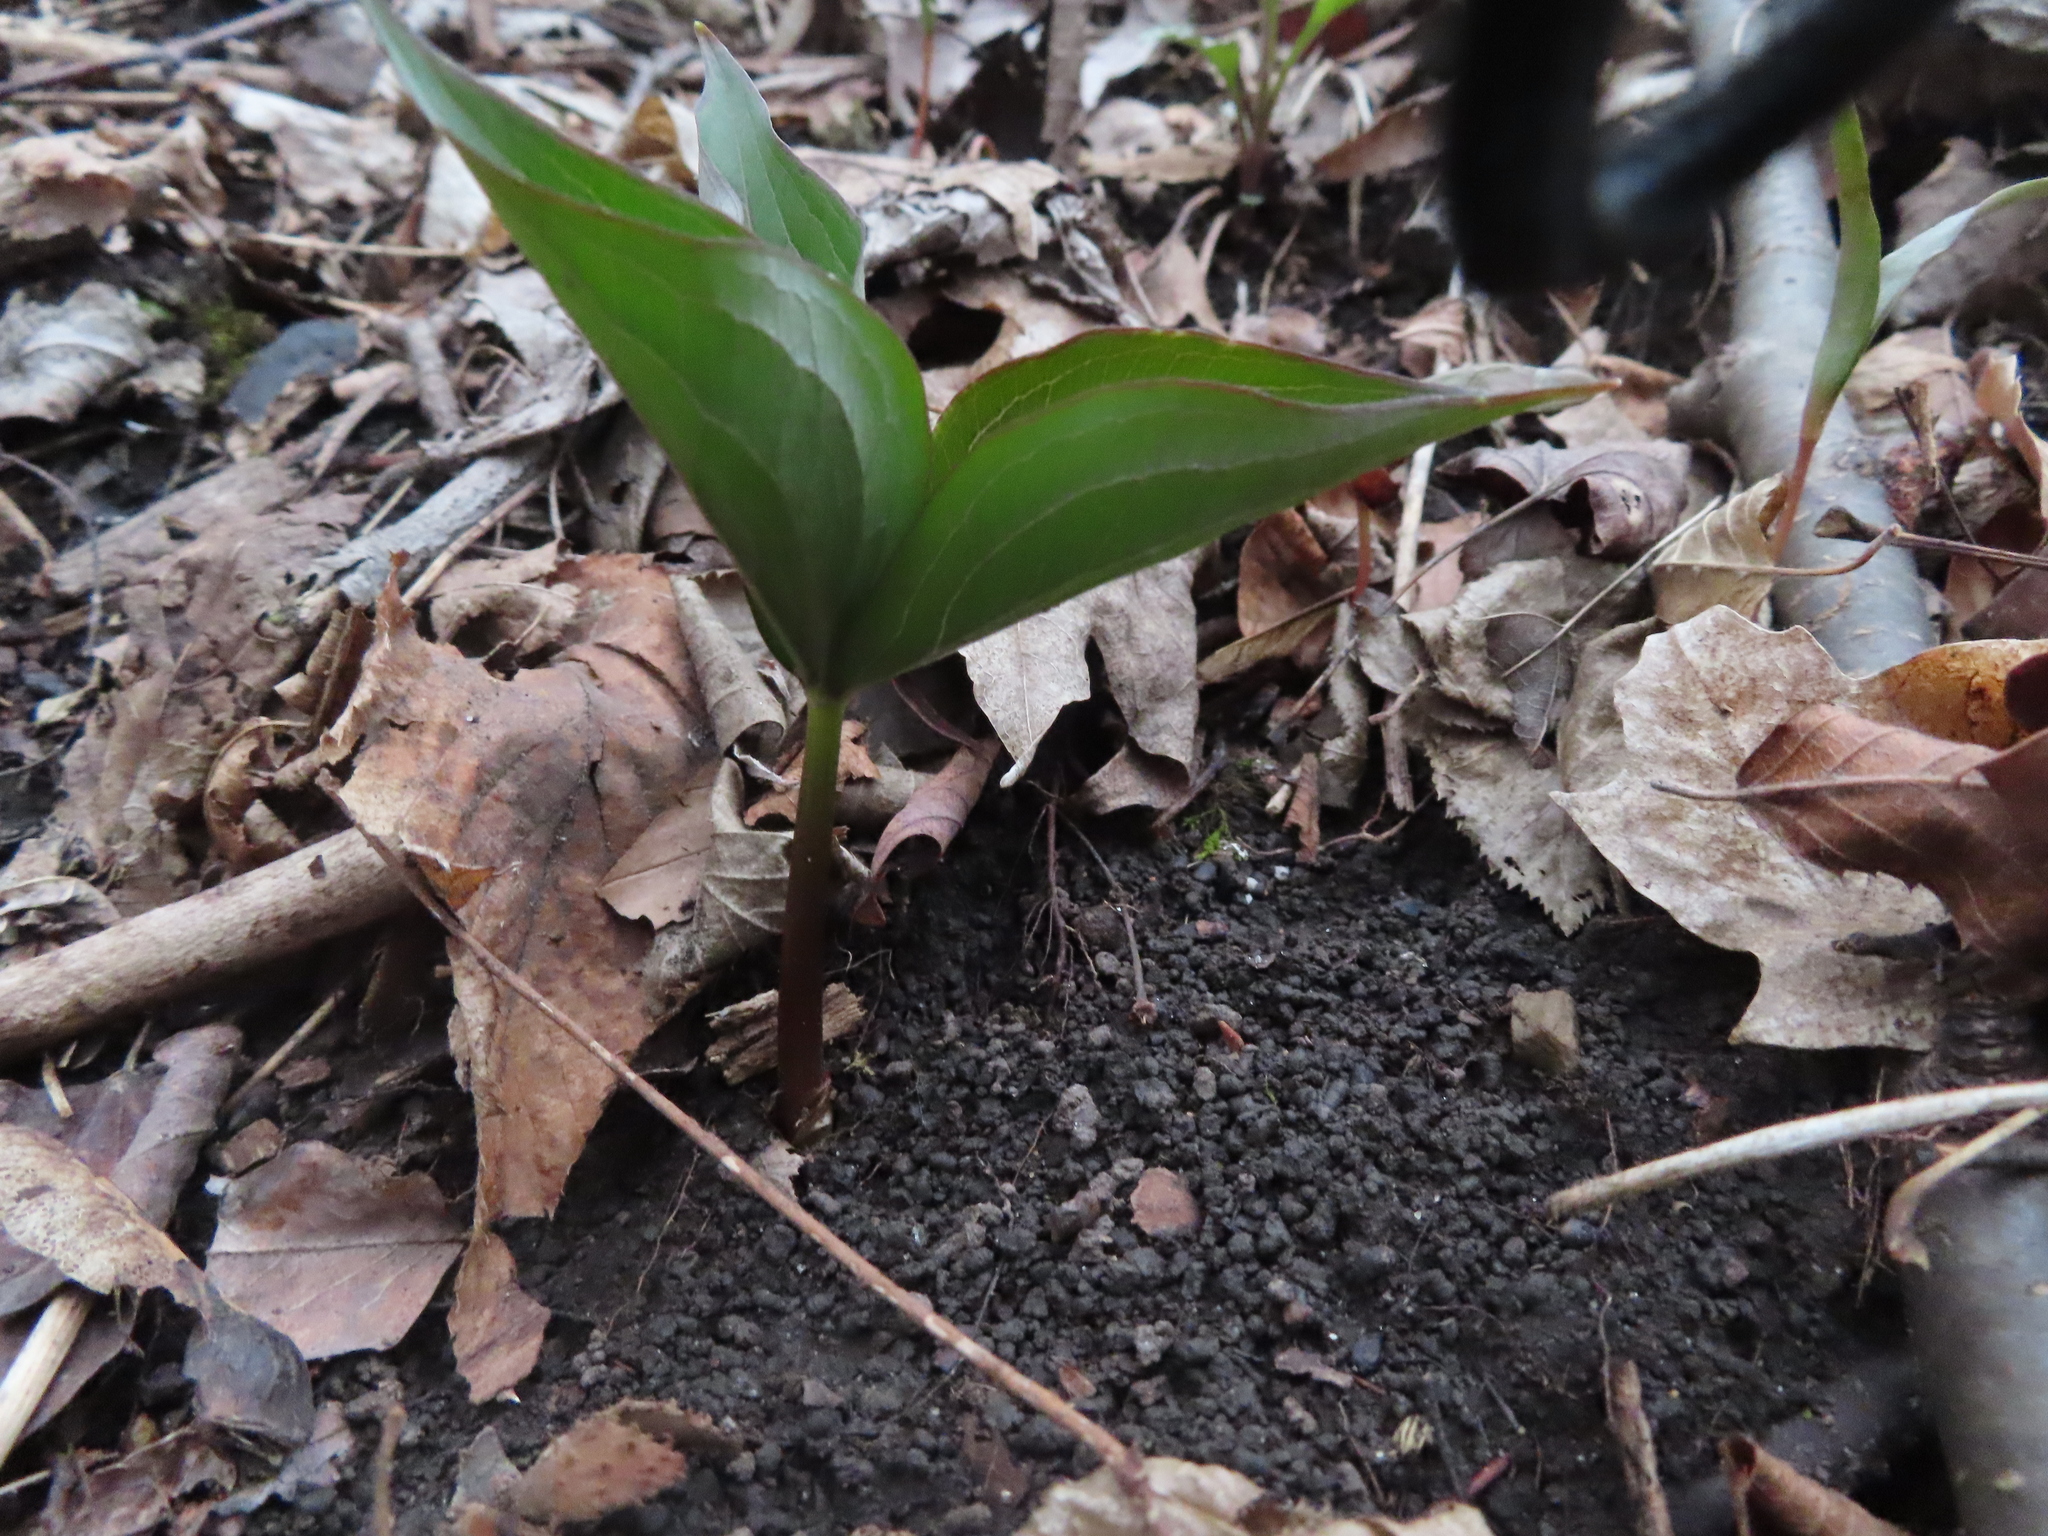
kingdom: Plantae
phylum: Tracheophyta
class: Liliopsida
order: Liliales
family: Melanthiaceae
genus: Trillium
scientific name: Trillium grandiflorum
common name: Great white trillium
